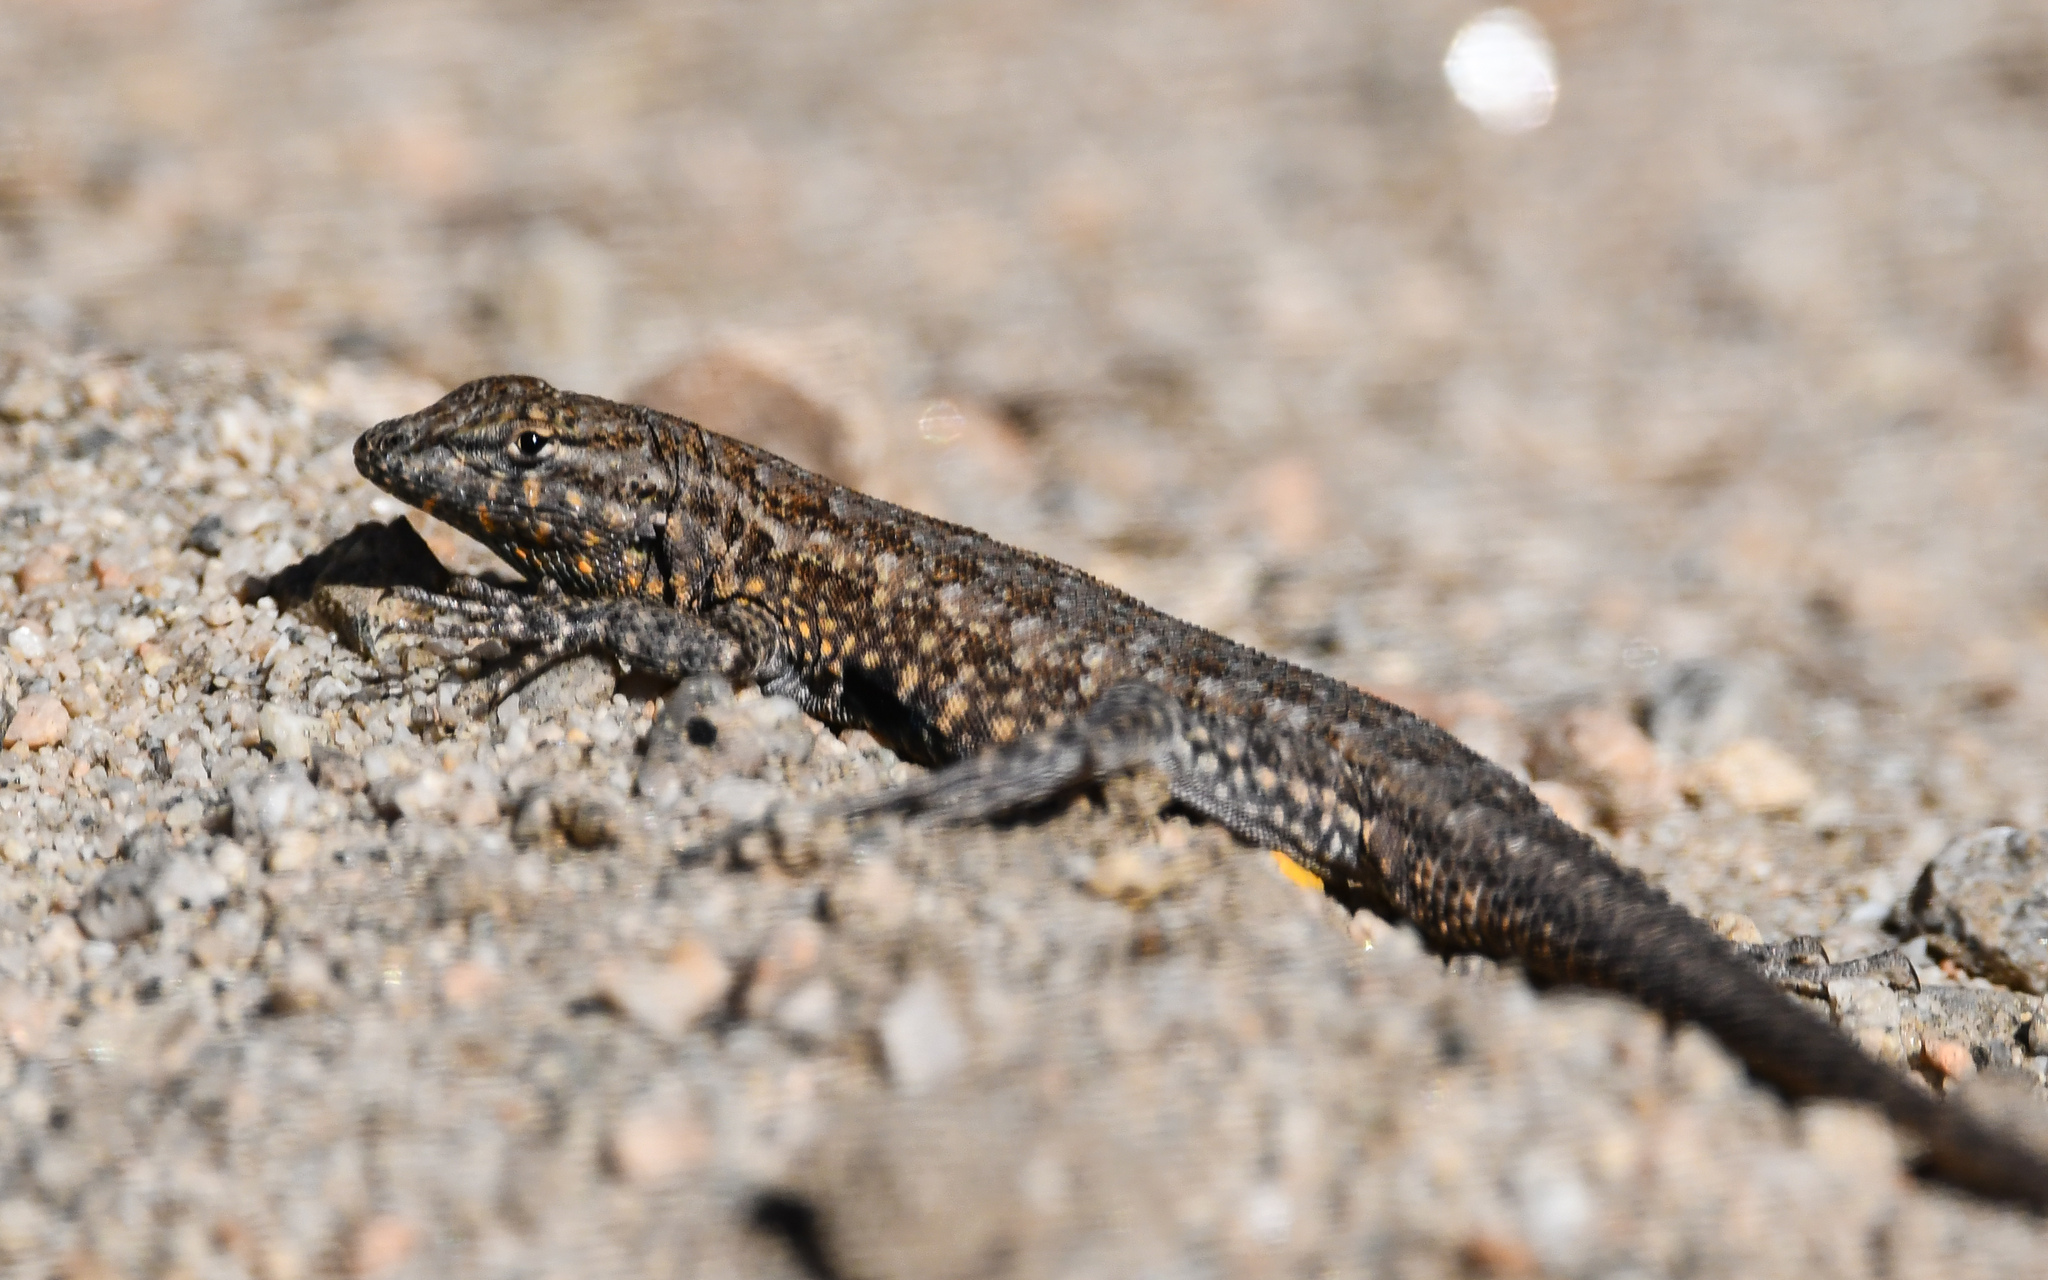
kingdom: Animalia
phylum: Chordata
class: Squamata
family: Phrynosomatidae
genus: Uta
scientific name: Uta stansburiana
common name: Side-blotched lizard
